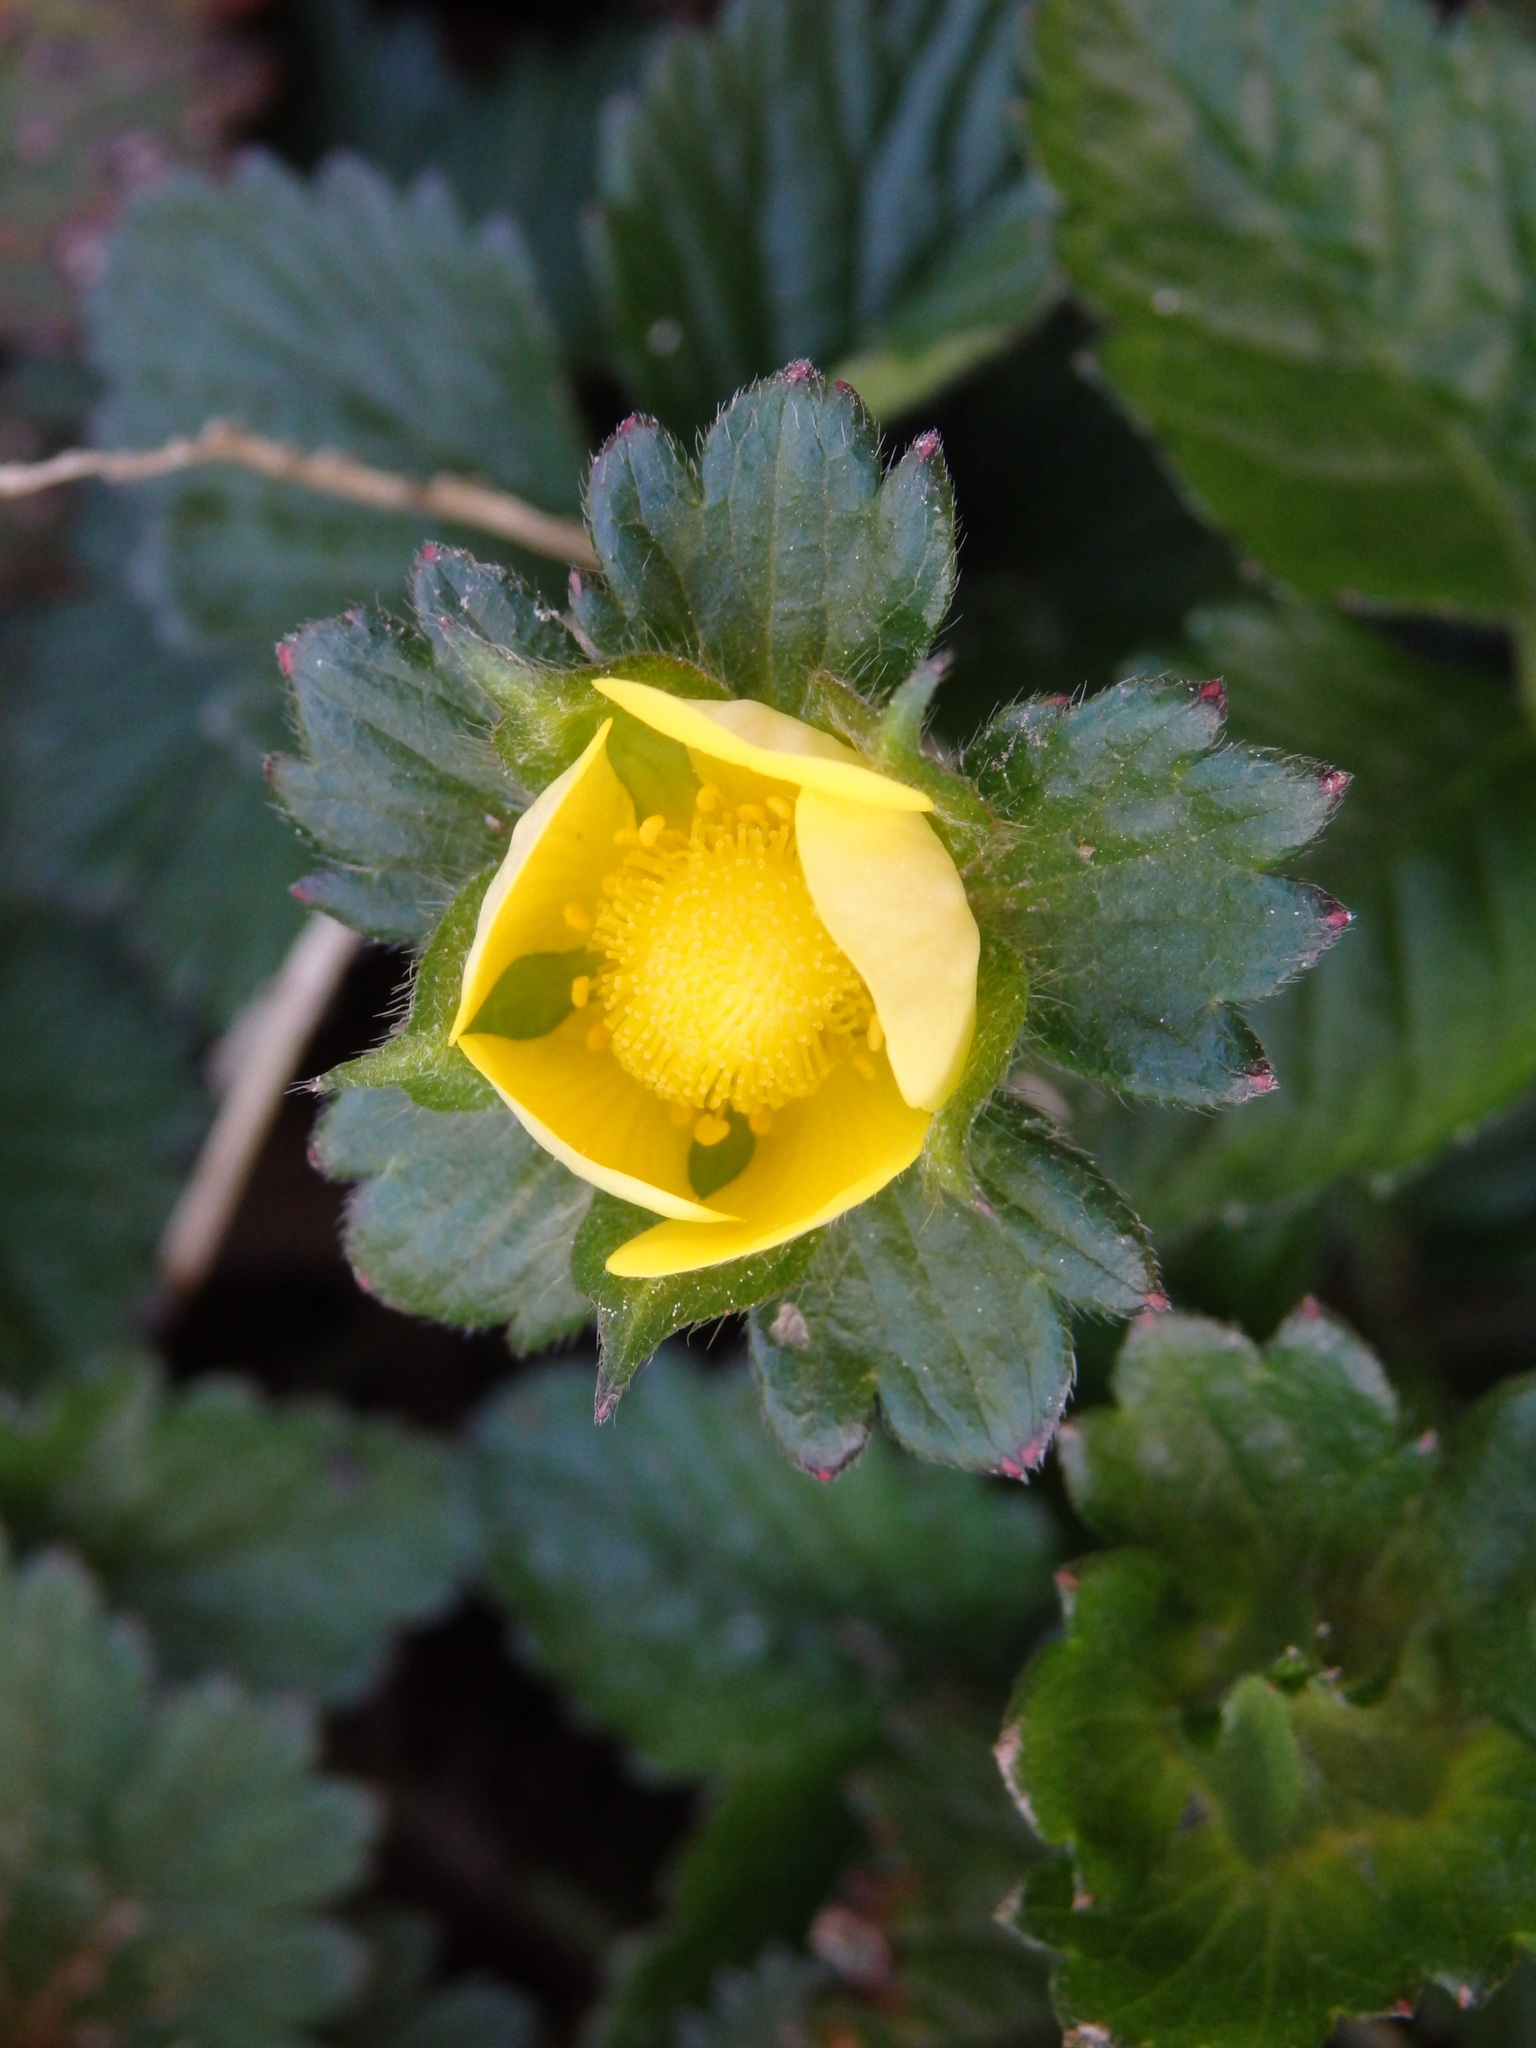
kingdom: Plantae
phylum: Tracheophyta
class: Magnoliopsida
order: Rosales
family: Rosaceae
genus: Potentilla
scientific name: Potentilla indica
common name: Yellow-flowered strawberry
